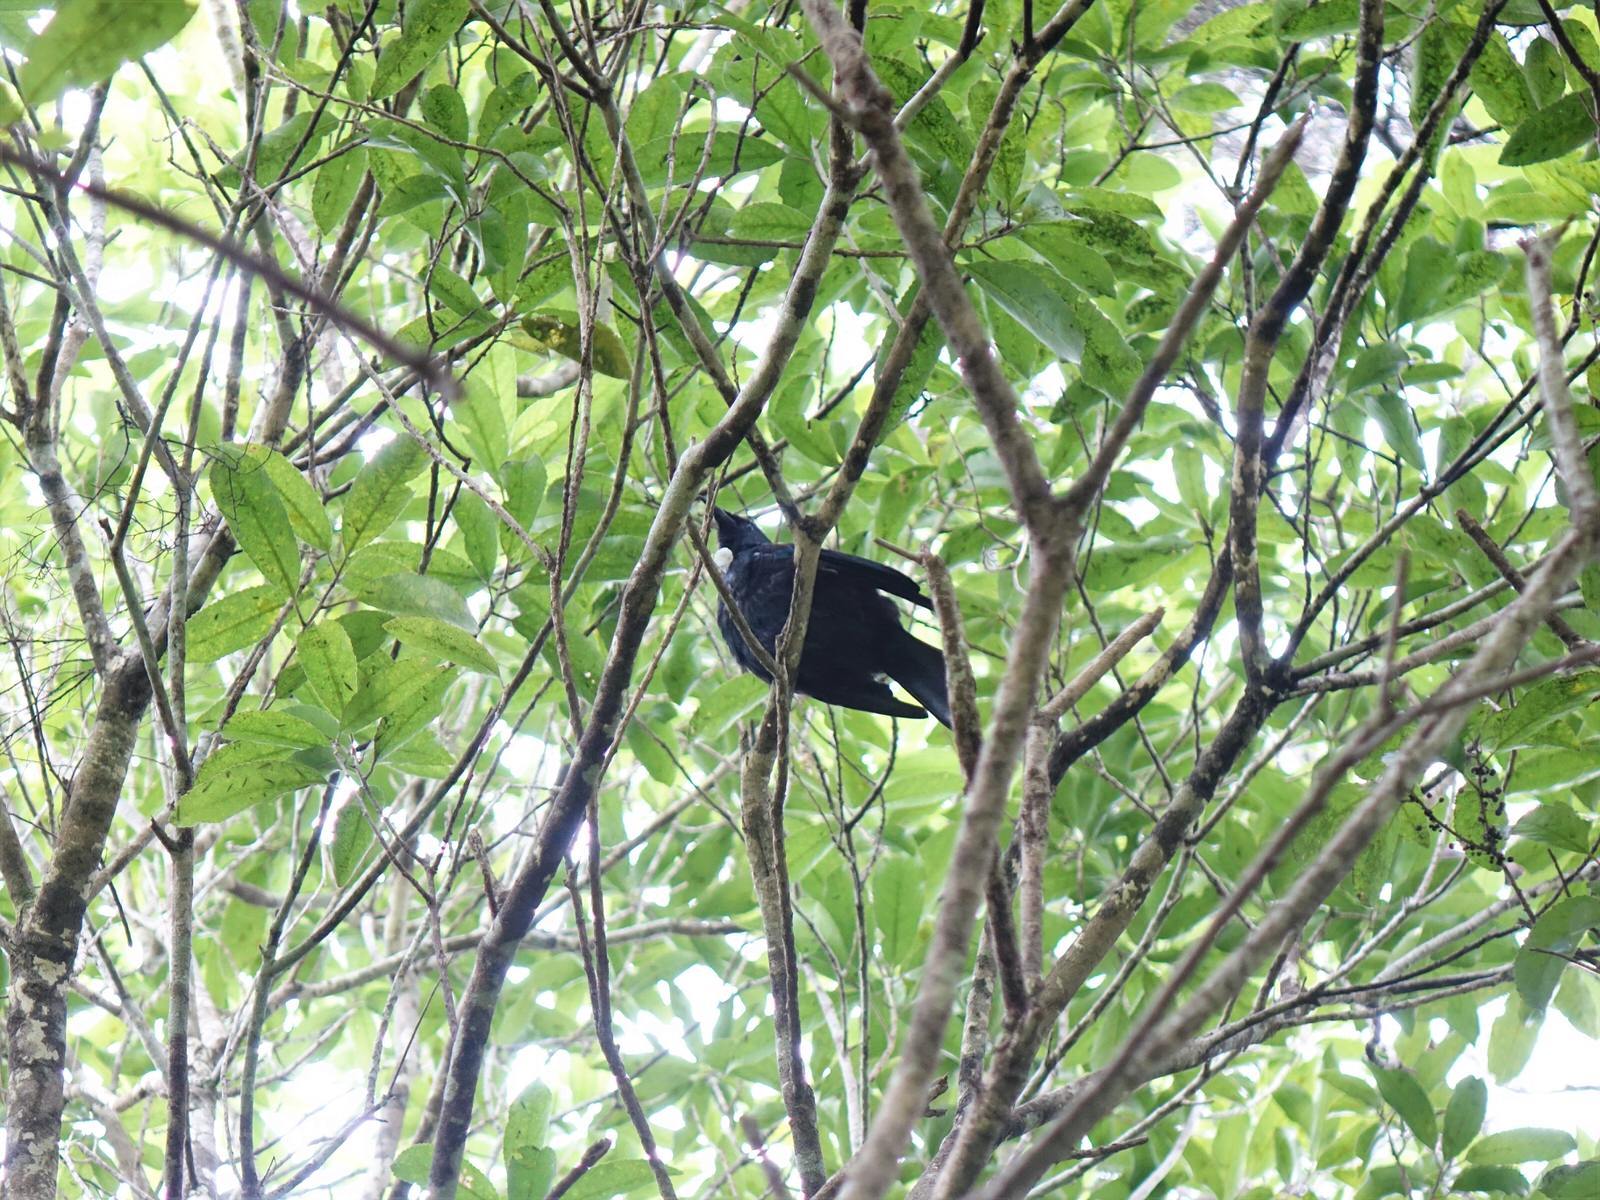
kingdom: Animalia
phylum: Chordata
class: Aves
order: Passeriformes
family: Meliphagidae
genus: Prosthemadera
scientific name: Prosthemadera novaeseelandiae
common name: Tui
